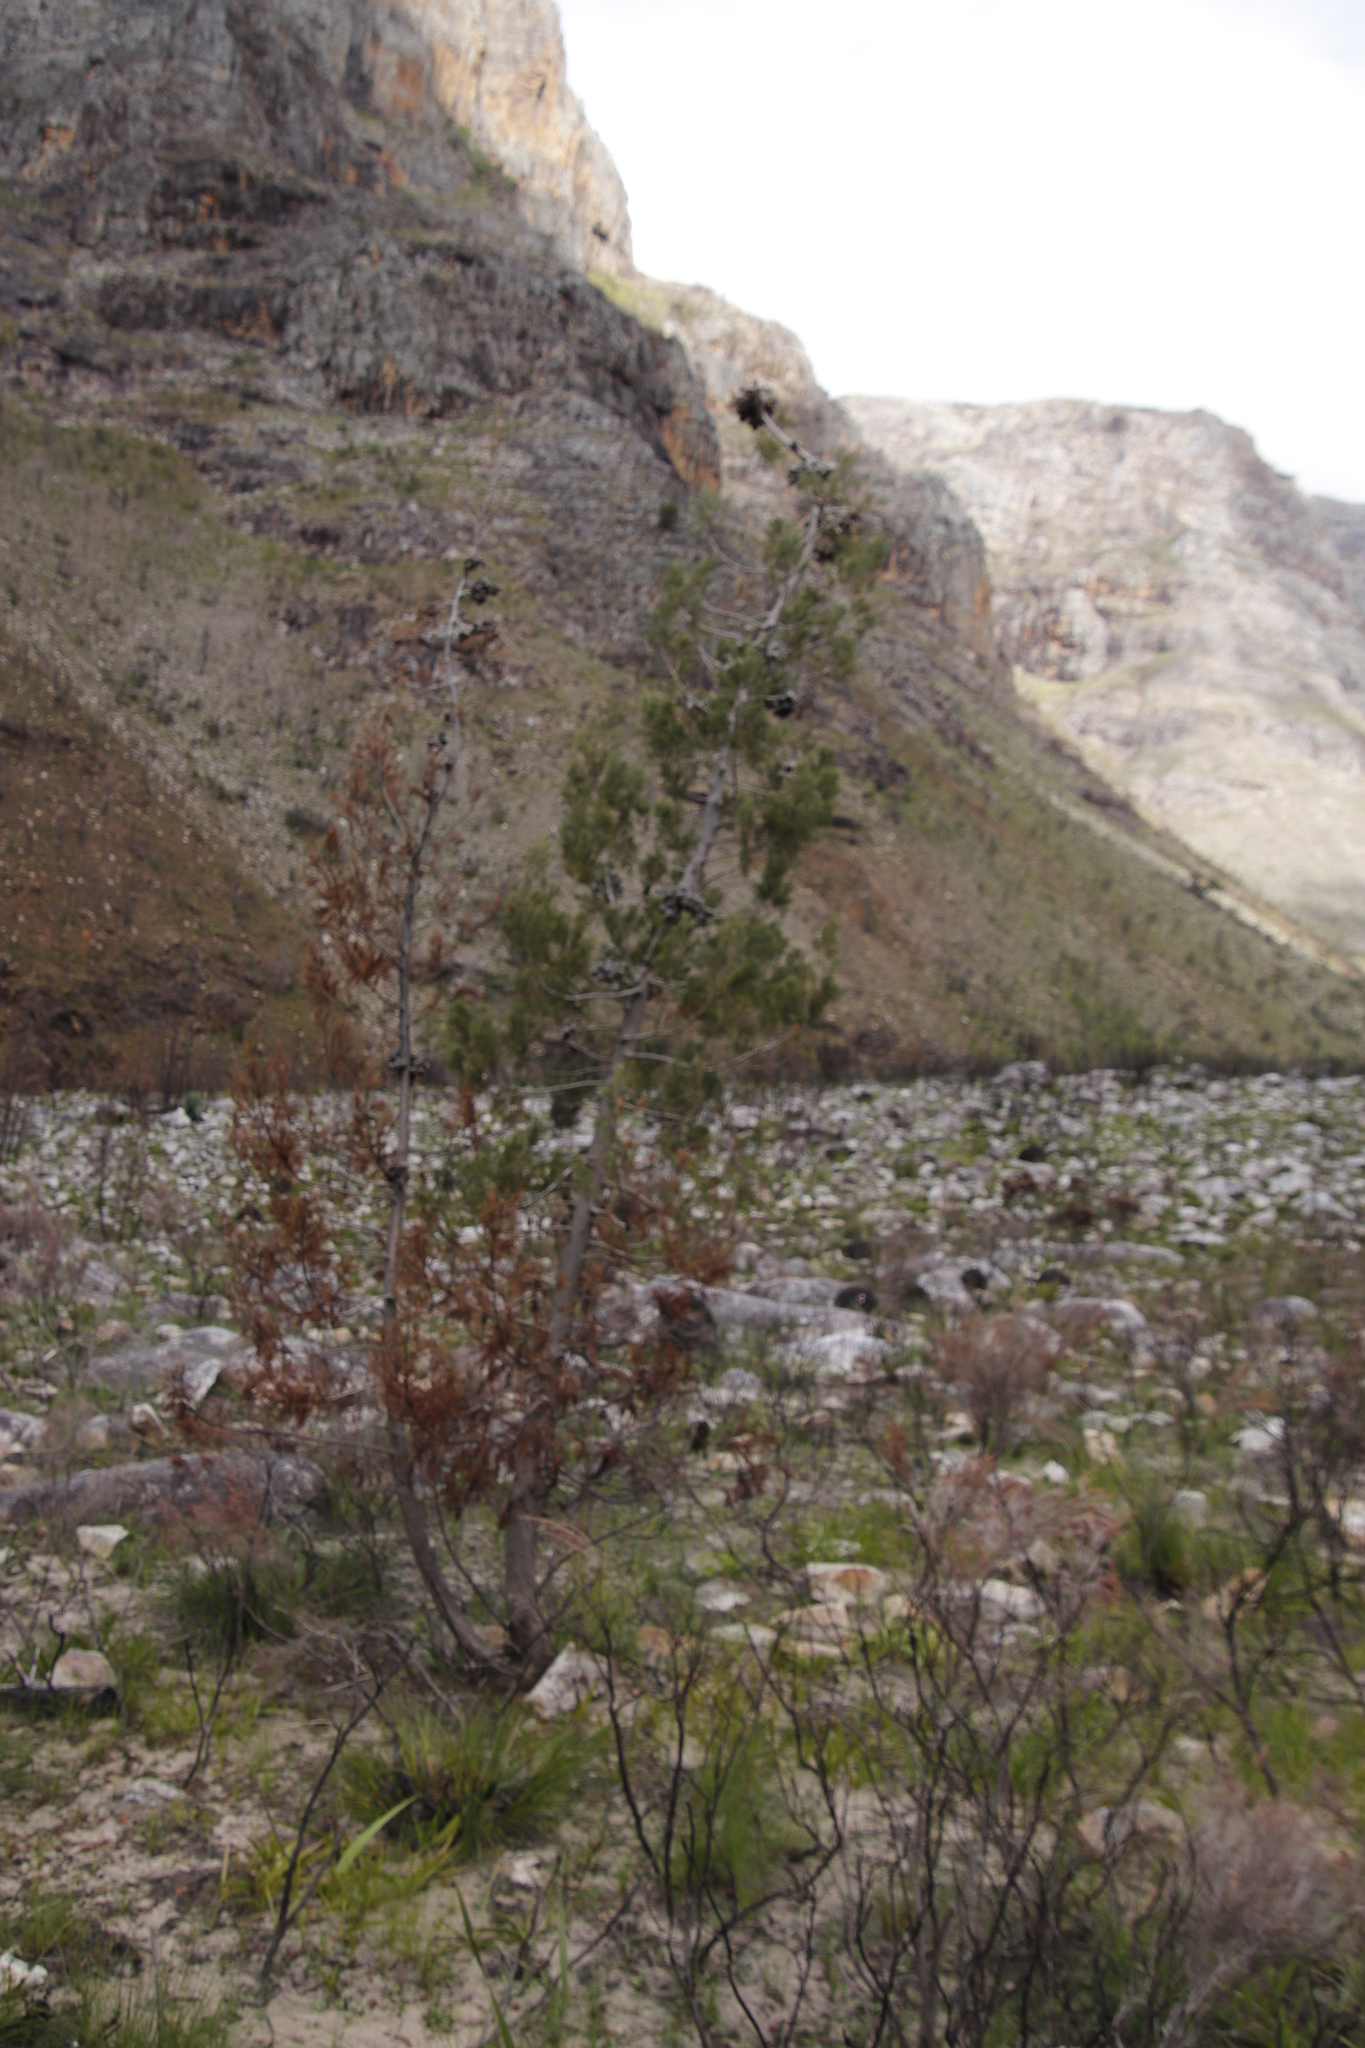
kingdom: Plantae
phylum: Tracheophyta
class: Pinopsida
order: Pinales
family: Cupressaceae
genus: Widdringtonia
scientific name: Widdringtonia nodiflora
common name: Cape cypress
